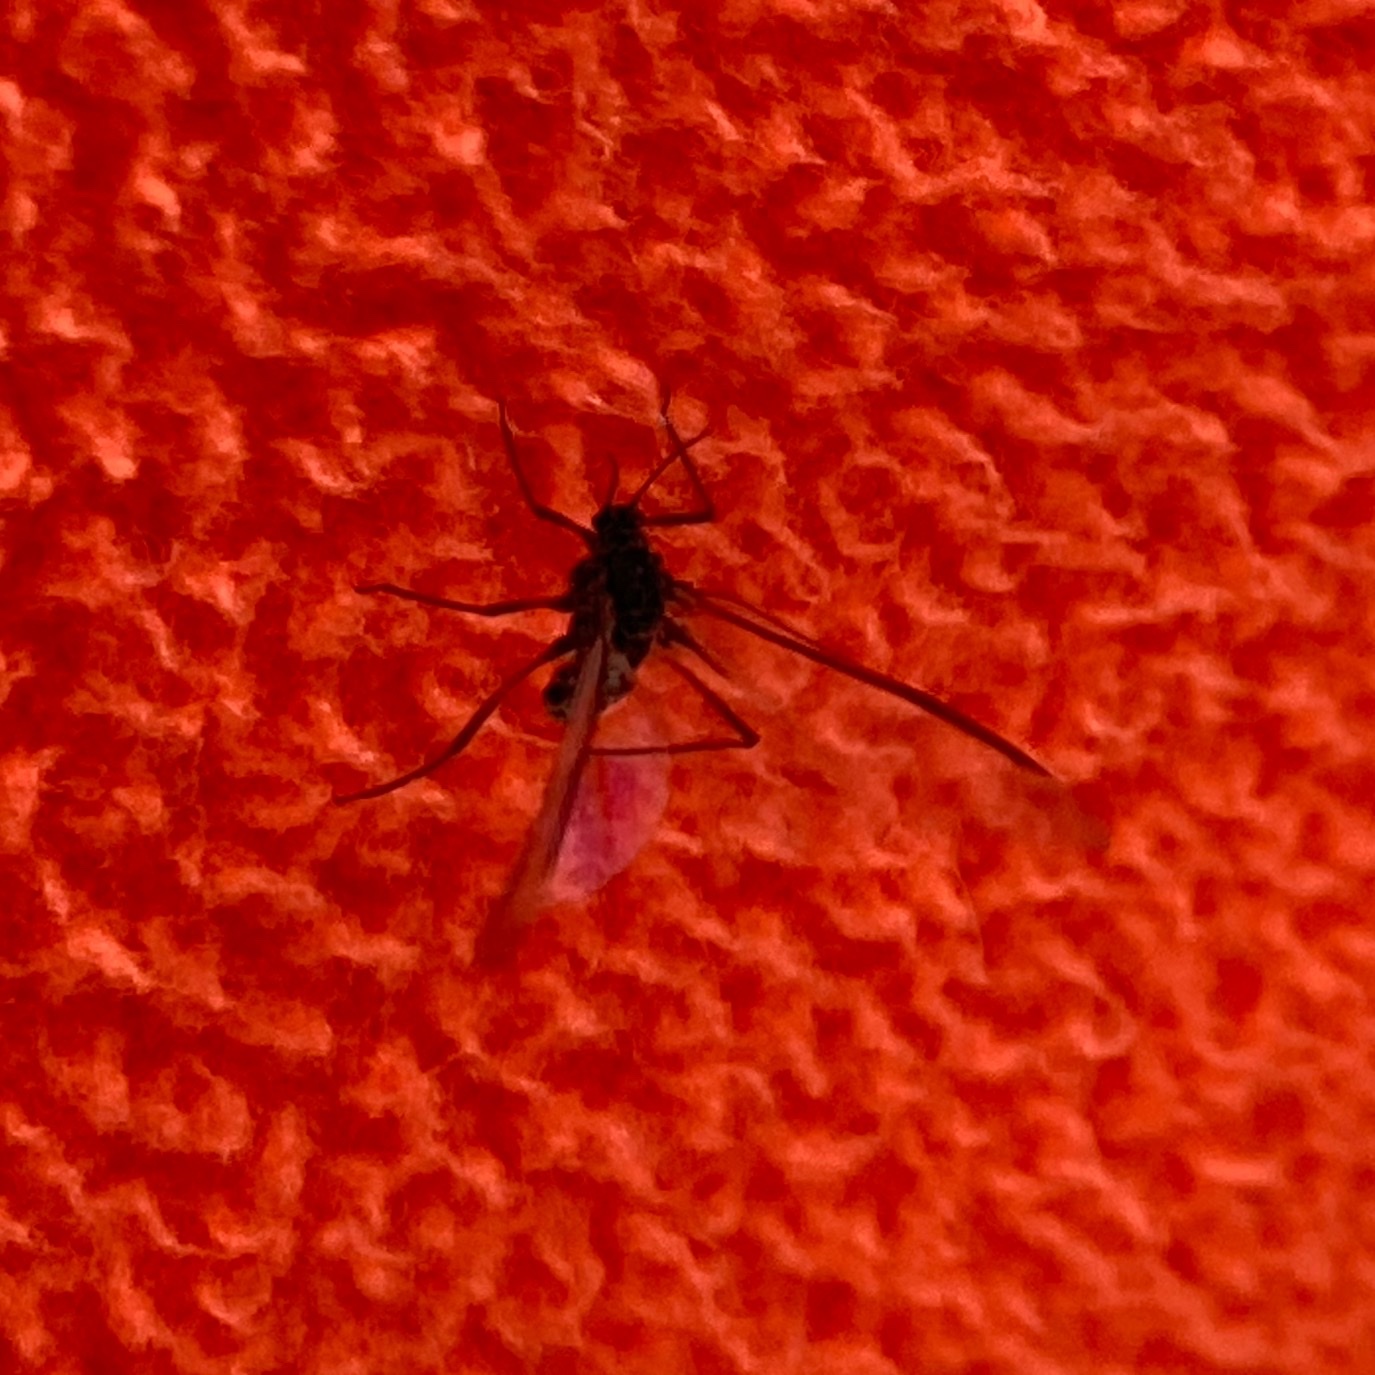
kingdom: Animalia
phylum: Arthropoda
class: Insecta
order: Hemiptera
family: Aphididae
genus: Tuberolachnus
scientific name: Tuberolachnus salignus
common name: Giant willow aphid
